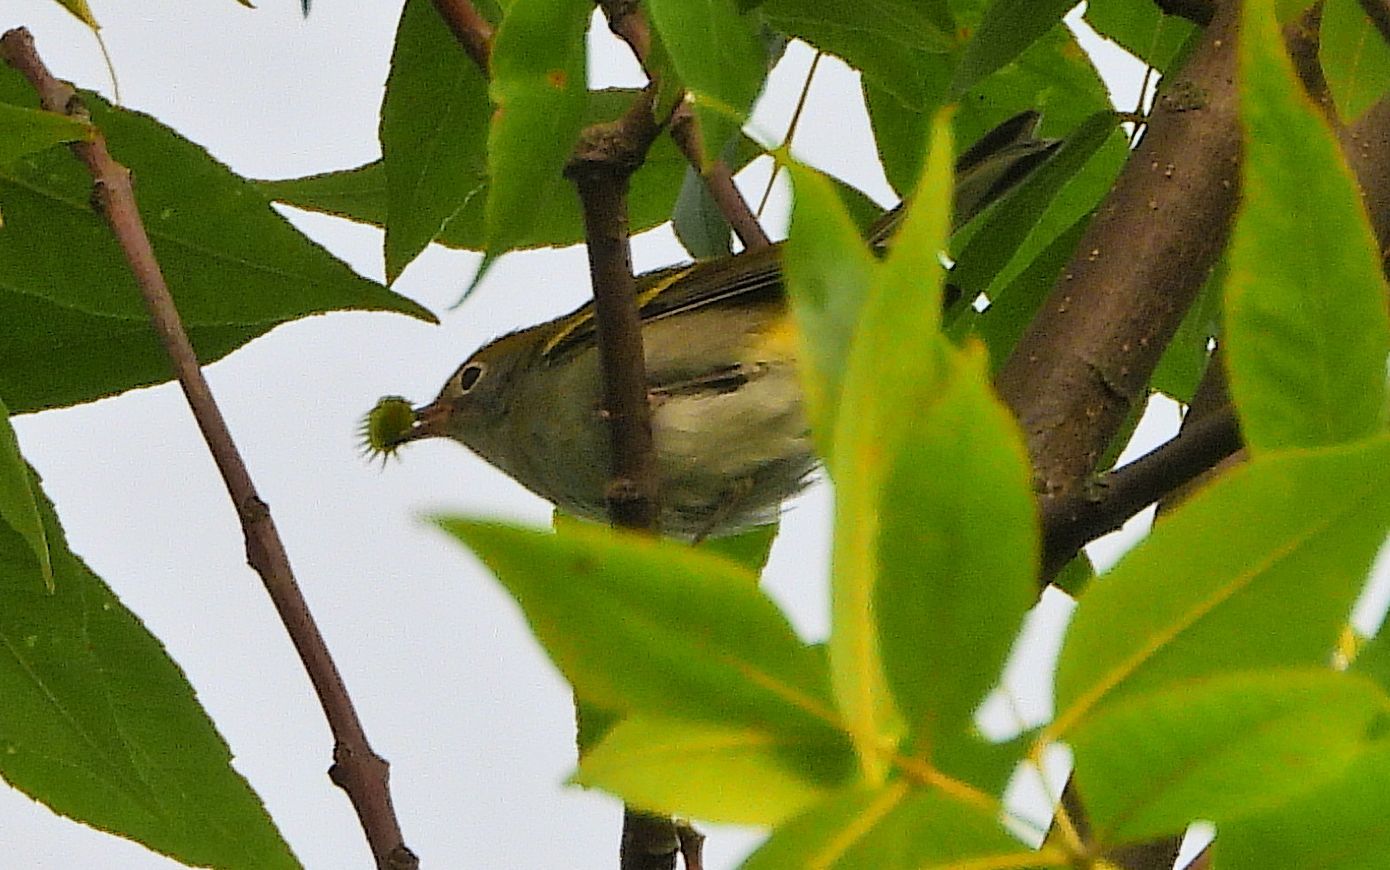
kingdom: Animalia
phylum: Chordata
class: Aves
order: Passeriformes
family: Parulidae
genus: Setophaga
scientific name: Setophaga pensylvanica
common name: Chestnut-sided warbler
